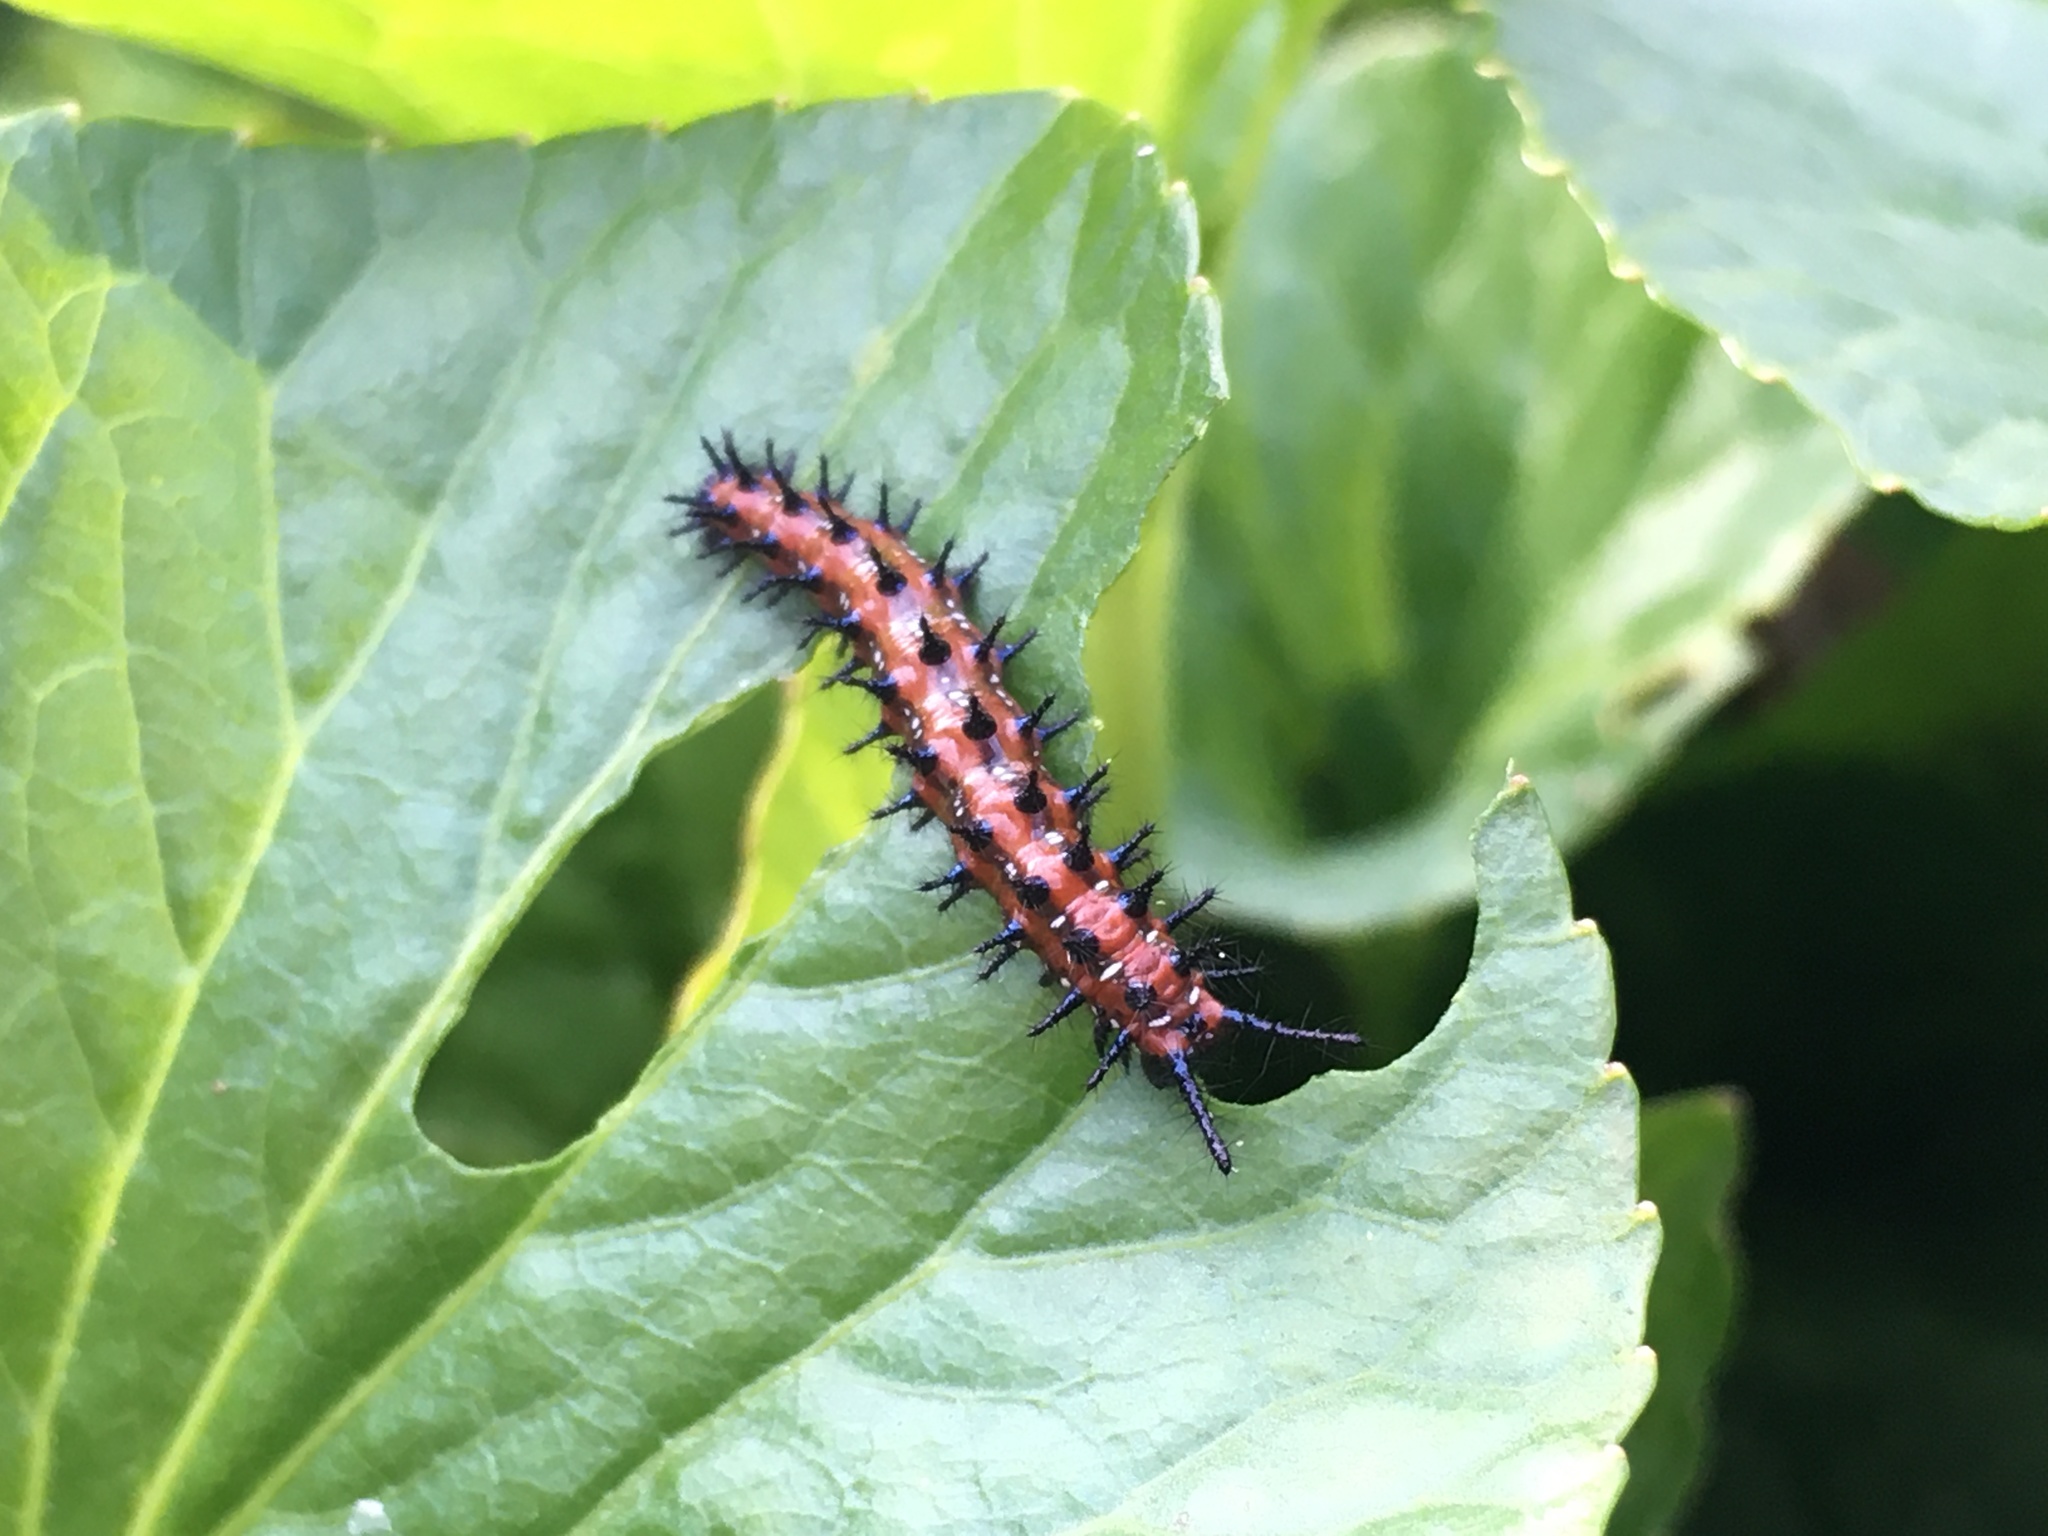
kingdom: Animalia
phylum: Arthropoda
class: Insecta
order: Lepidoptera
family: Nymphalidae
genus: Euptoieta
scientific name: Euptoieta claudia
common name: Variegated fritillary
